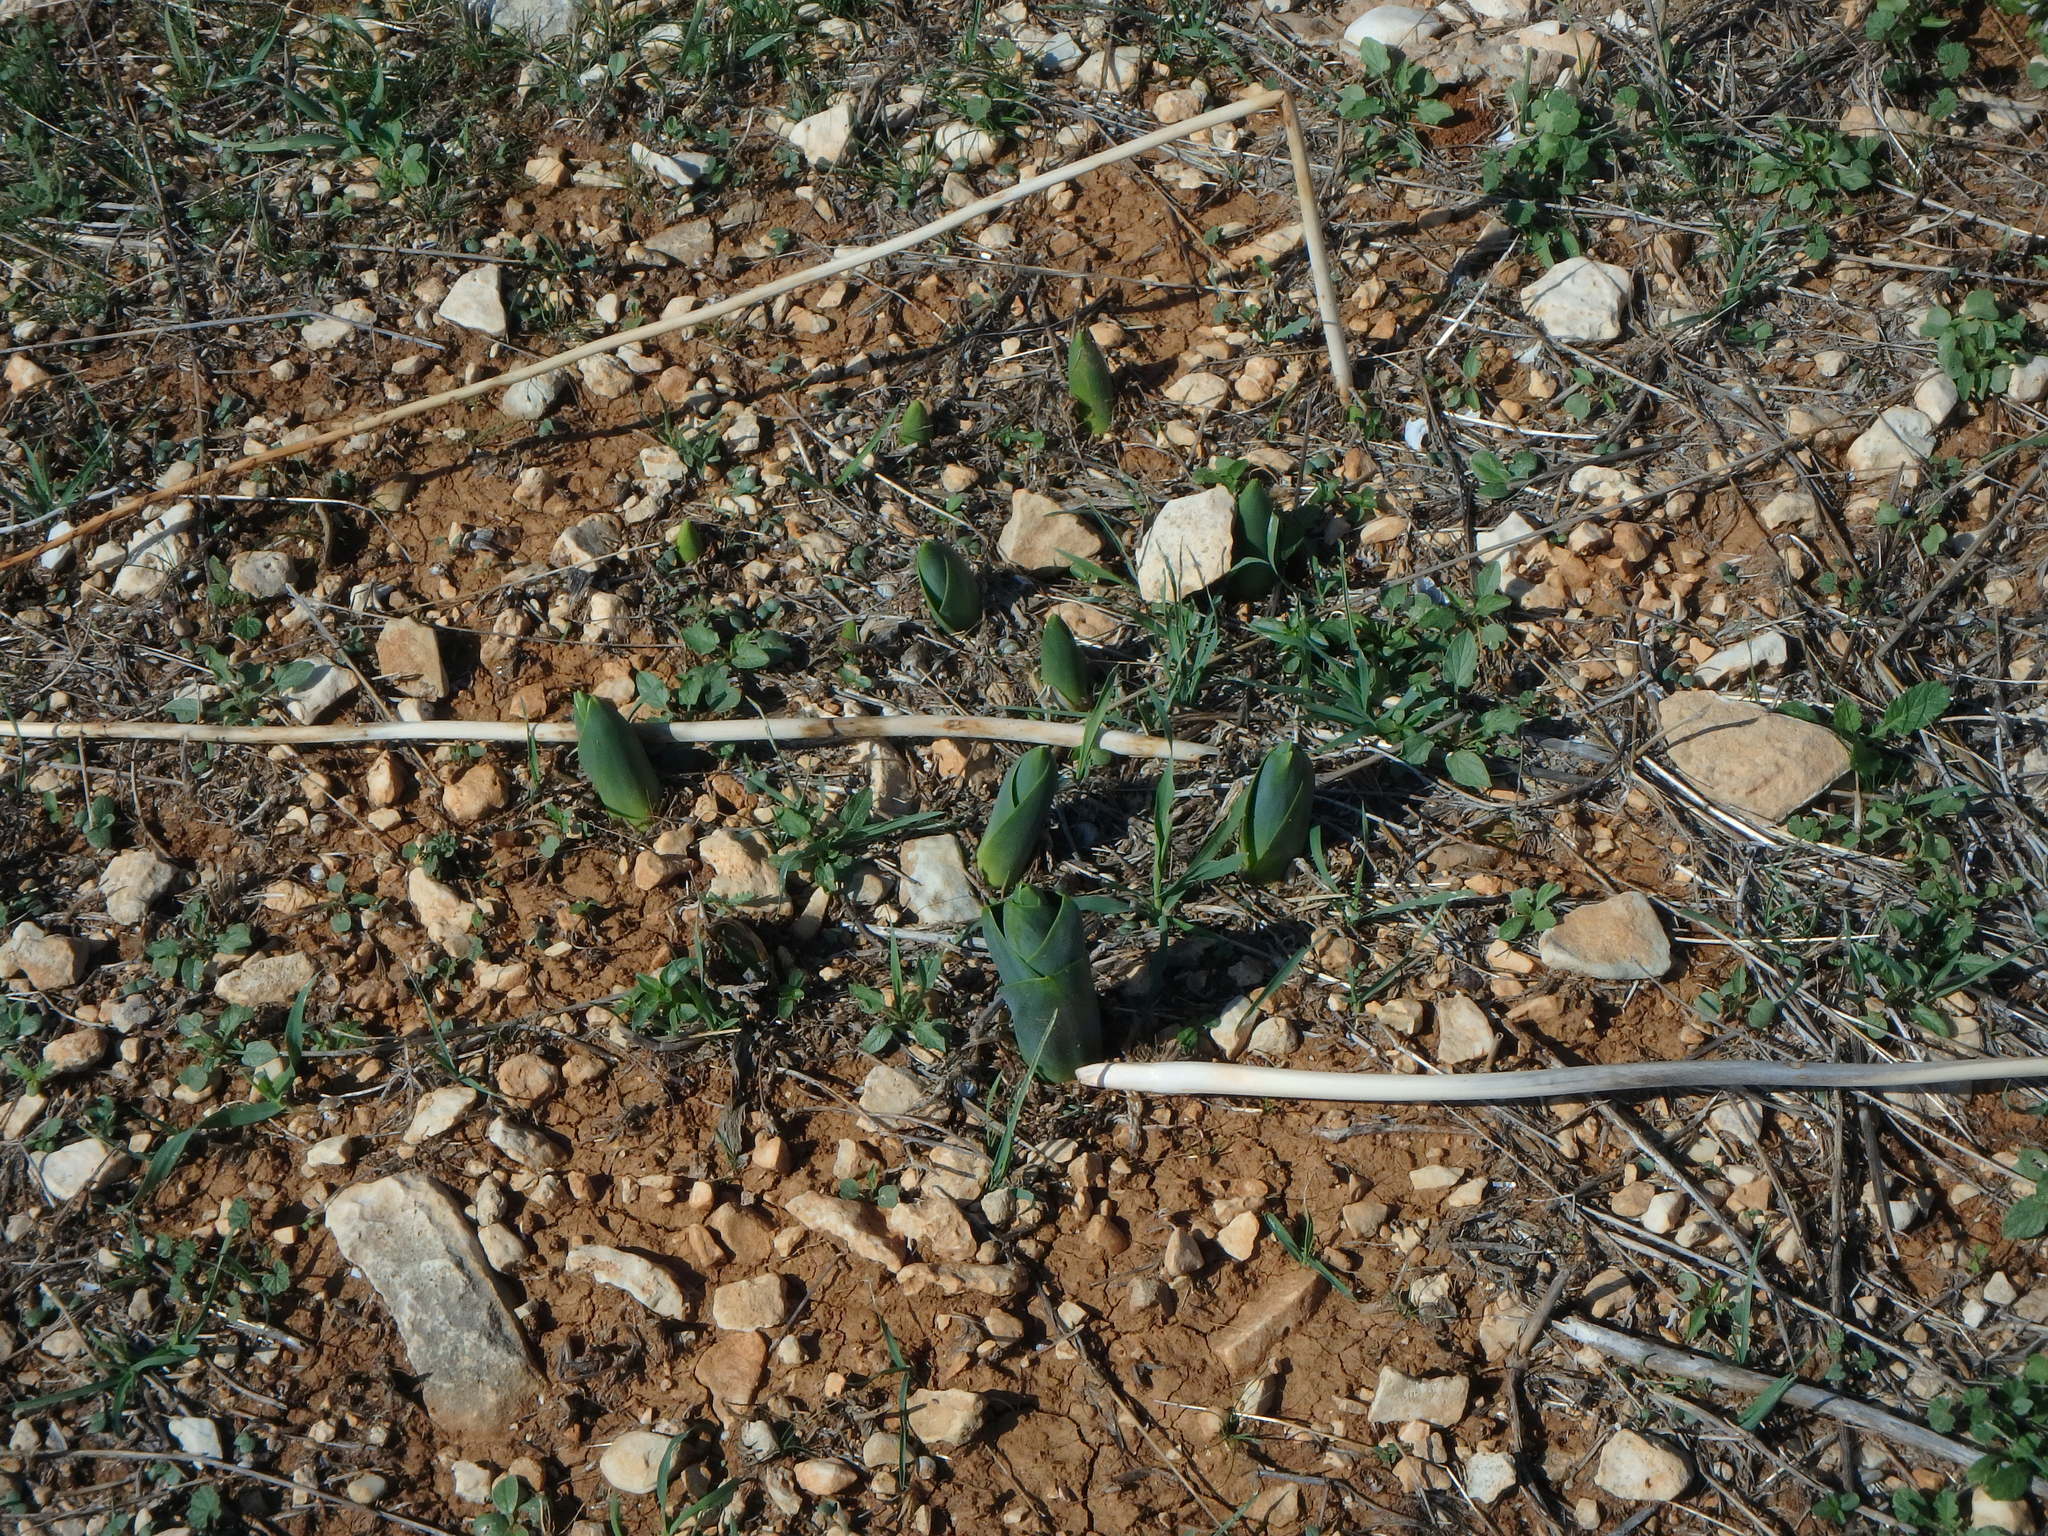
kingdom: Plantae
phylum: Tracheophyta
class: Liliopsida
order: Asparagales
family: Asparagaceae
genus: Drimia
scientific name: Drimia aphylla
